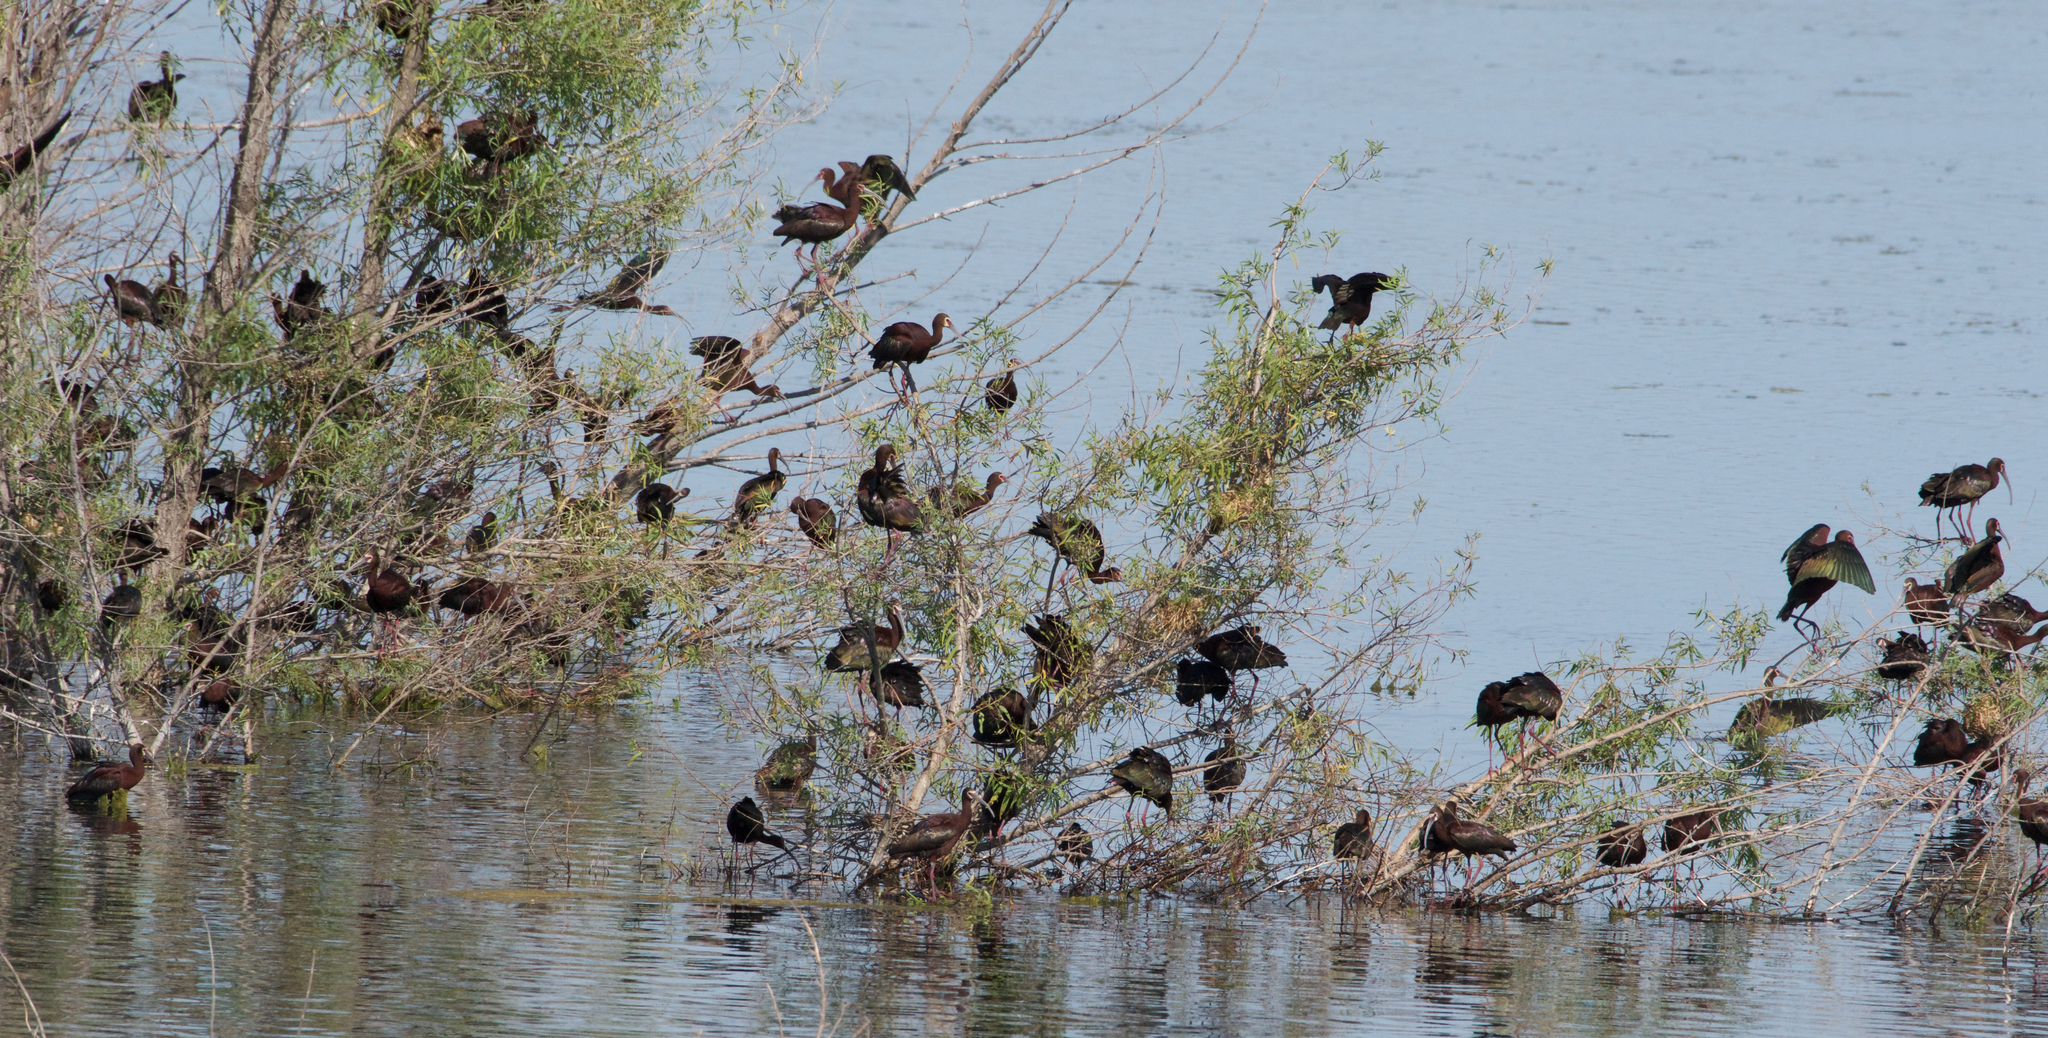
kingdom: Animalia
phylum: Chordata
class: Aves
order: Pelecaniformes
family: Threskiornithidae
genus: Plegadis
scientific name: Plegadis chihi
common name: White-faced ibis
